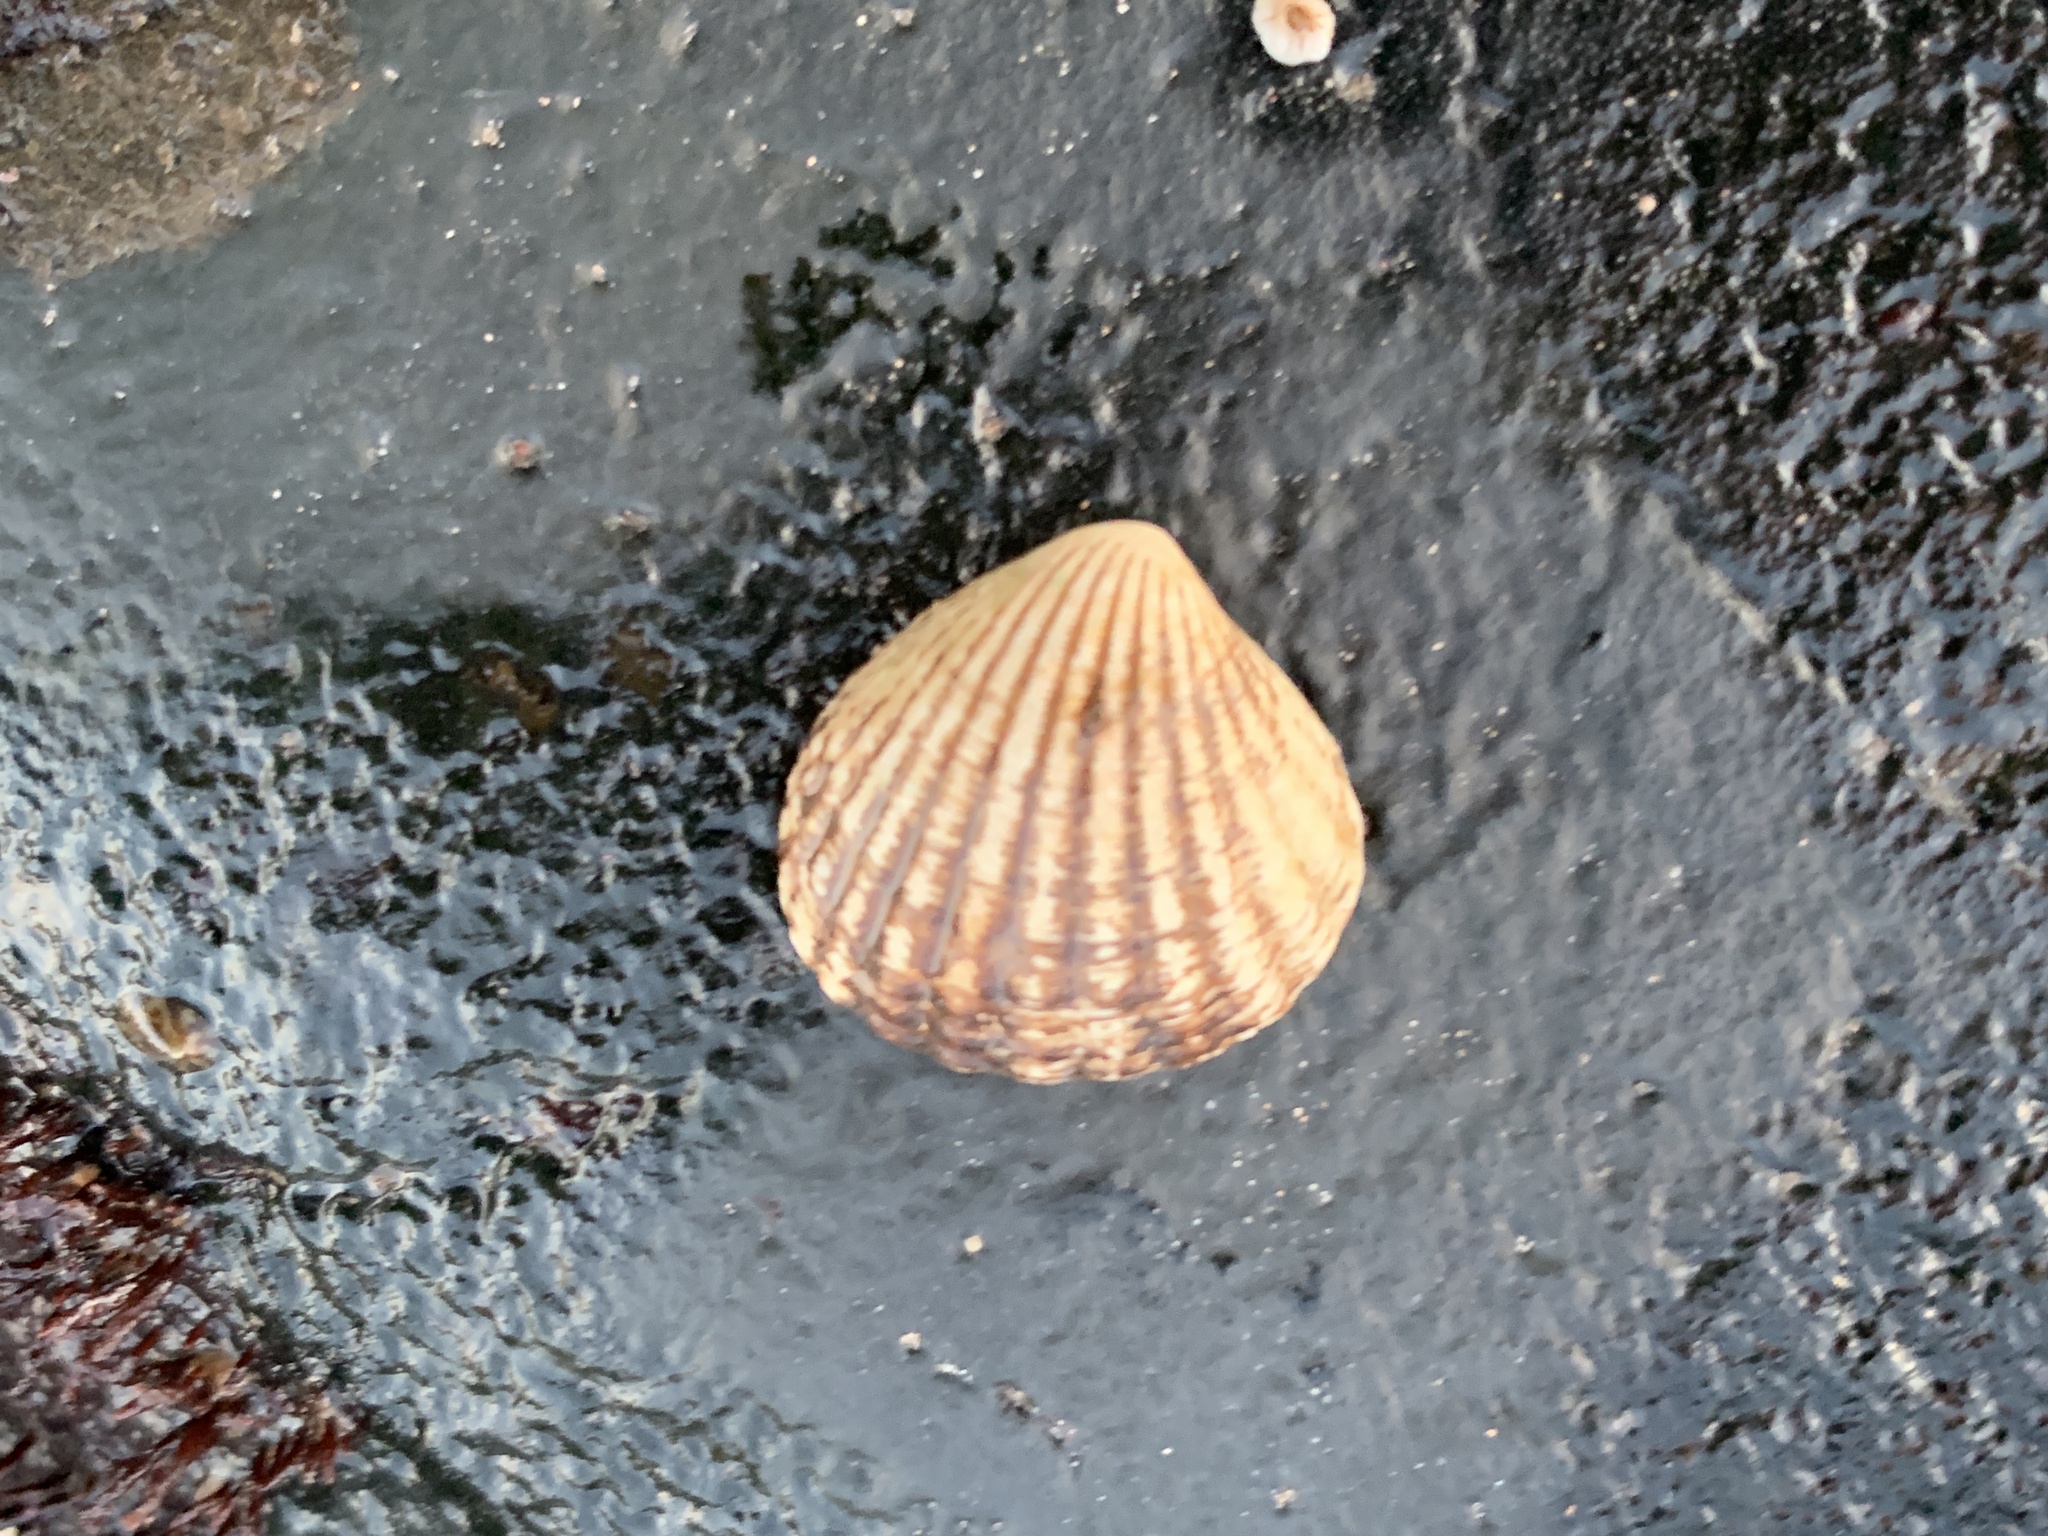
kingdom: Animalia
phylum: Mollusca
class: Bivalvia
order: Carditida
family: Carditidae
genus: Cyclocardia
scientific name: Cyclocardia borealis
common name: Northern cyclocardia
